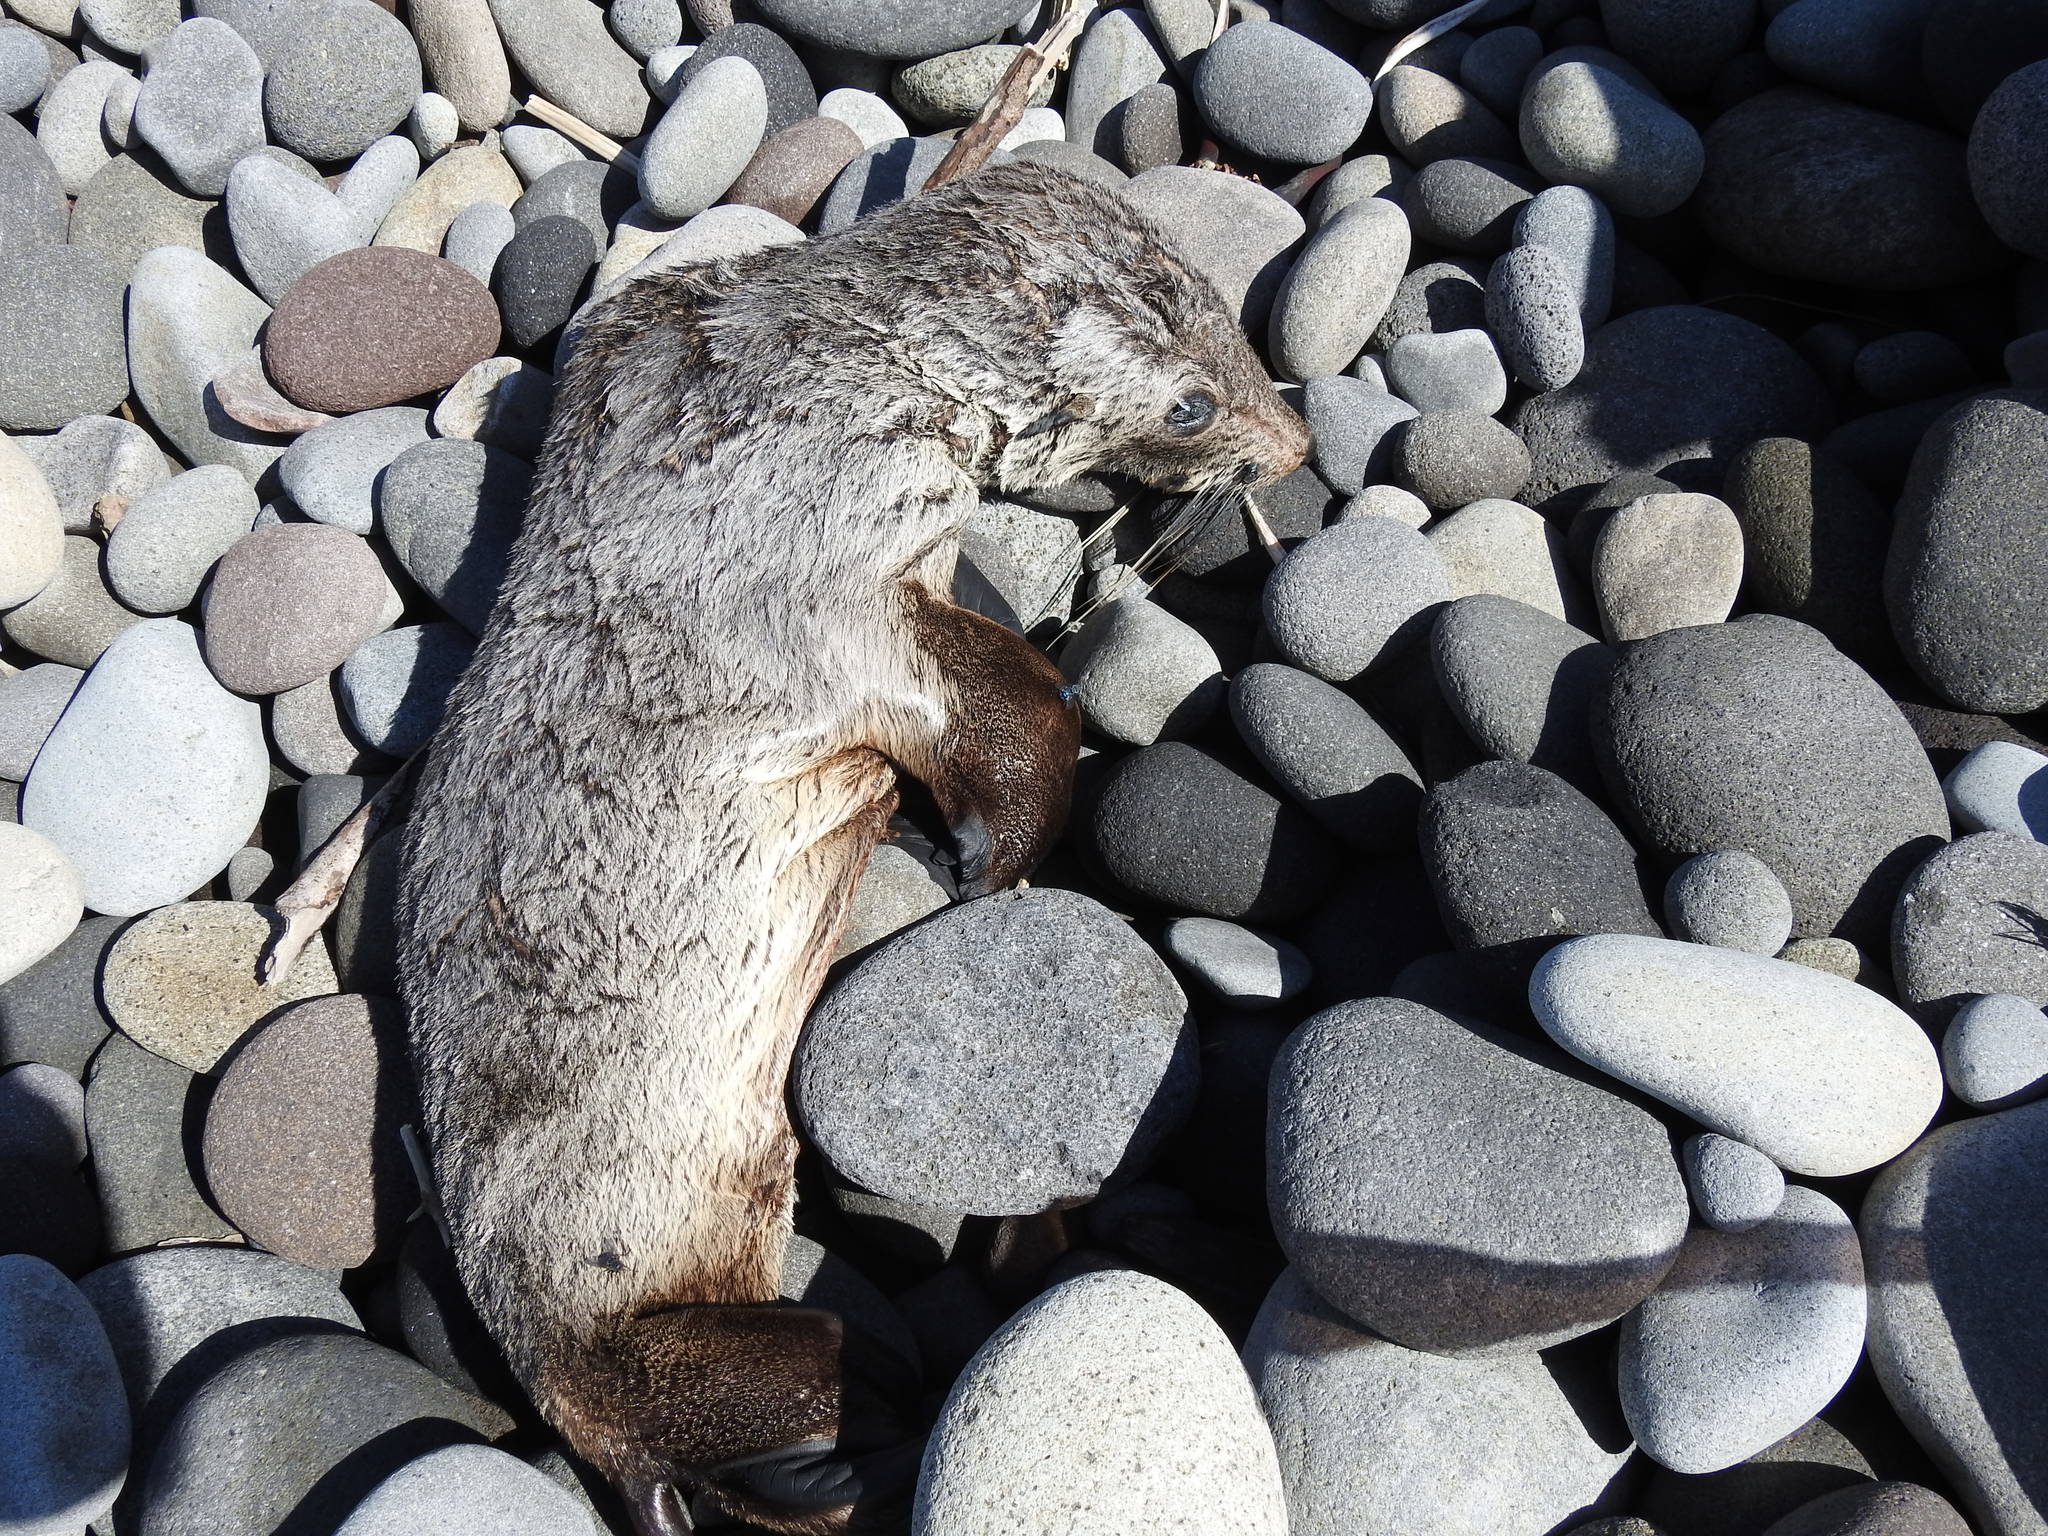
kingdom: Animalia
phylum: Chordata
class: Mammalia
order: Carnivora
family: Otariidae
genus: Arctocephalus
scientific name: Arctocephalus forsteri
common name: New zealand fur seal
